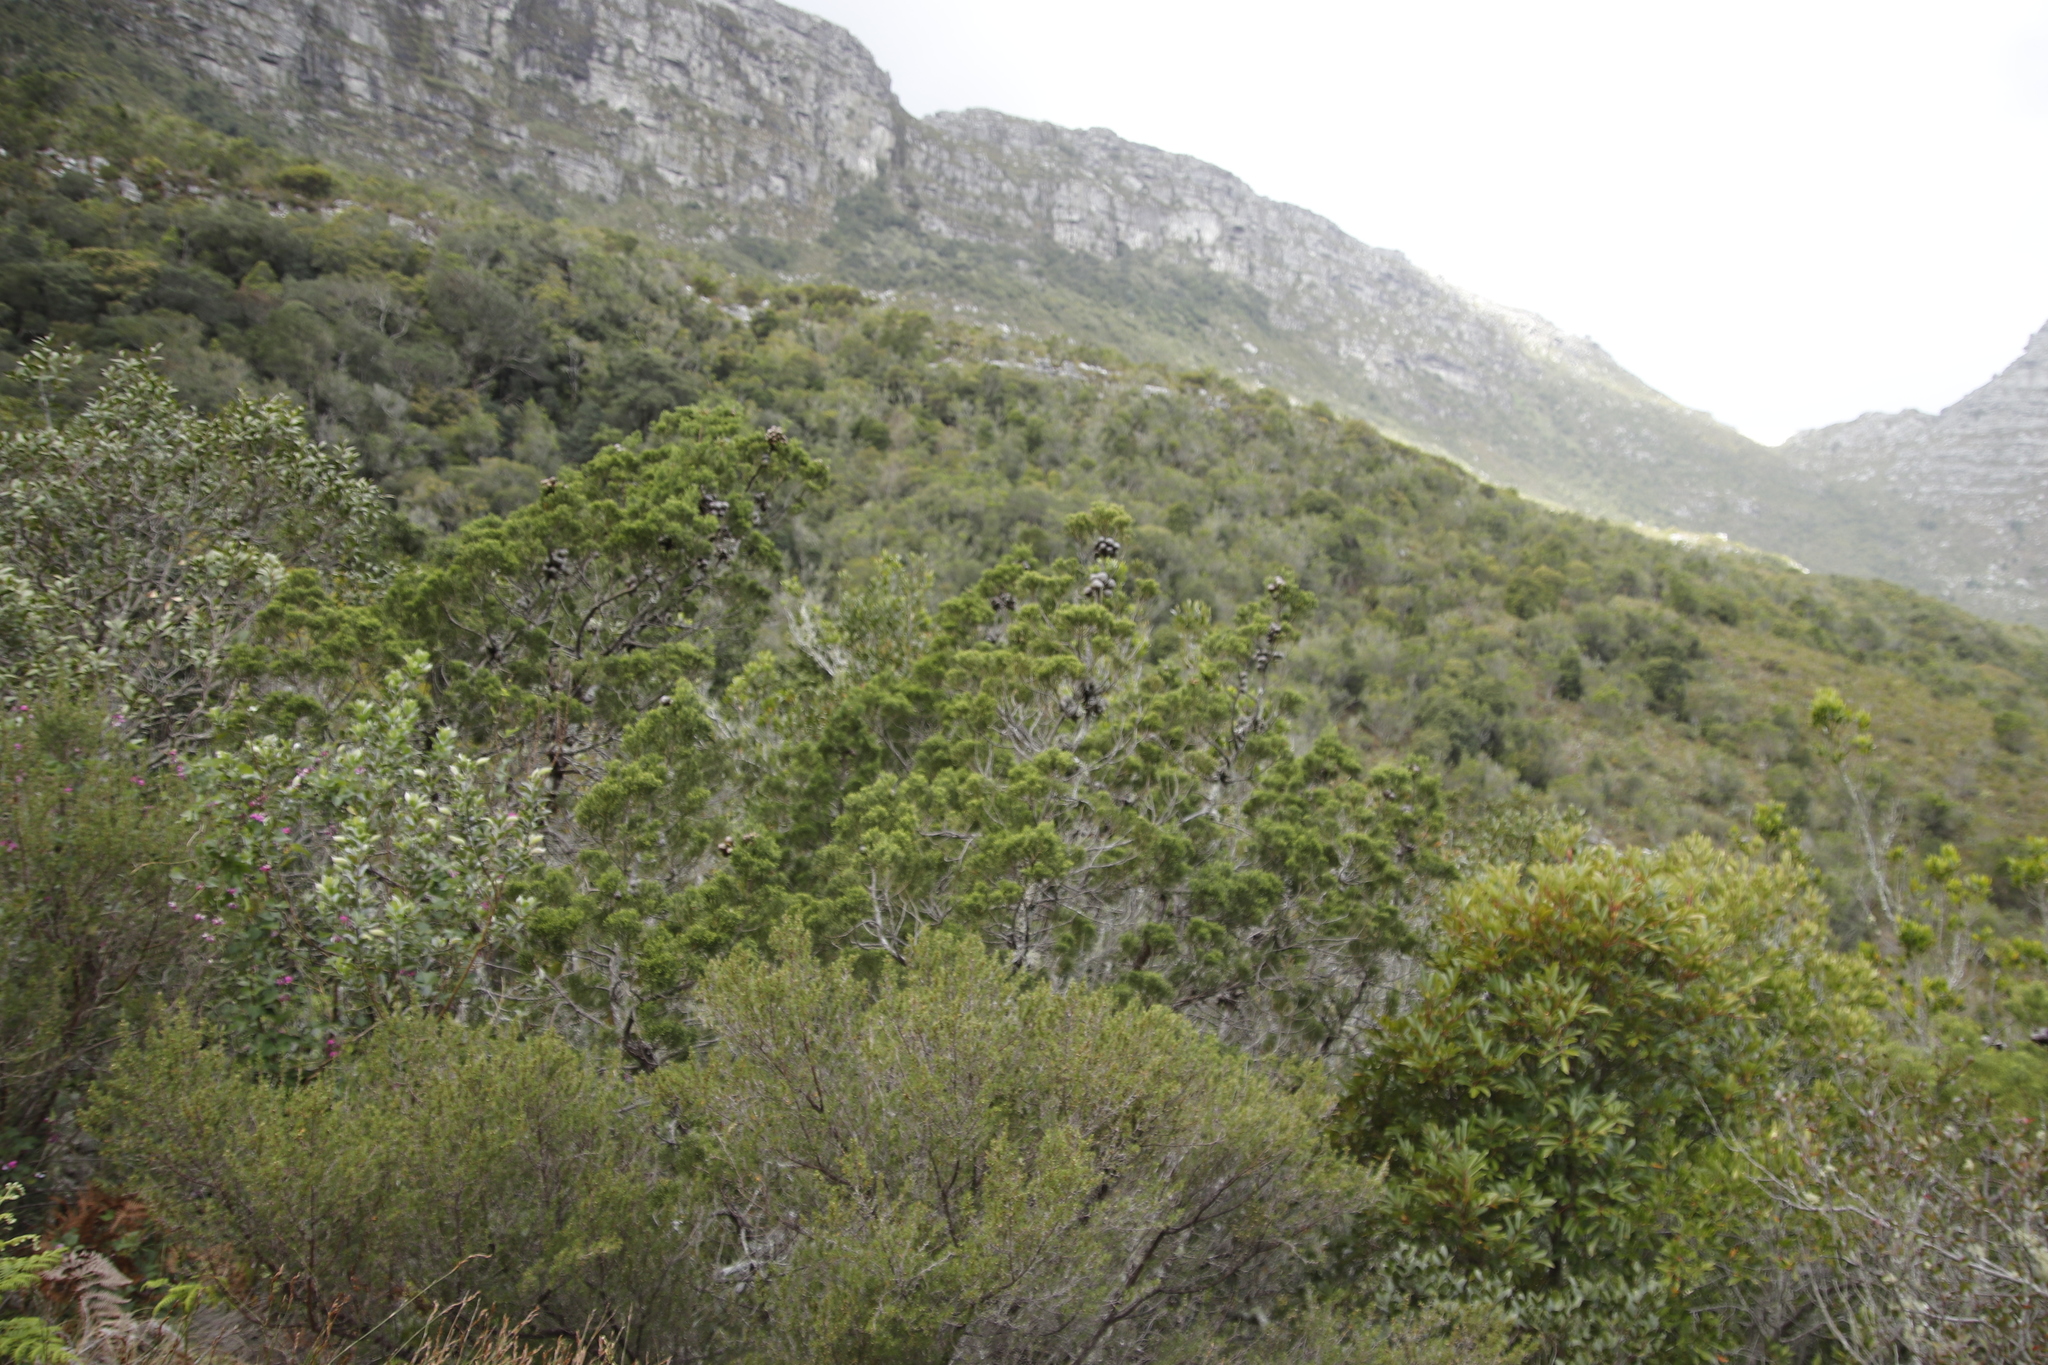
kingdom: Plantae
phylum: Tracheophyta
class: Pinopsida
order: Pinales
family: Cupressaceae
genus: Widdringtonia
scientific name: Widdringtonia nodiflora
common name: Cape cypress
